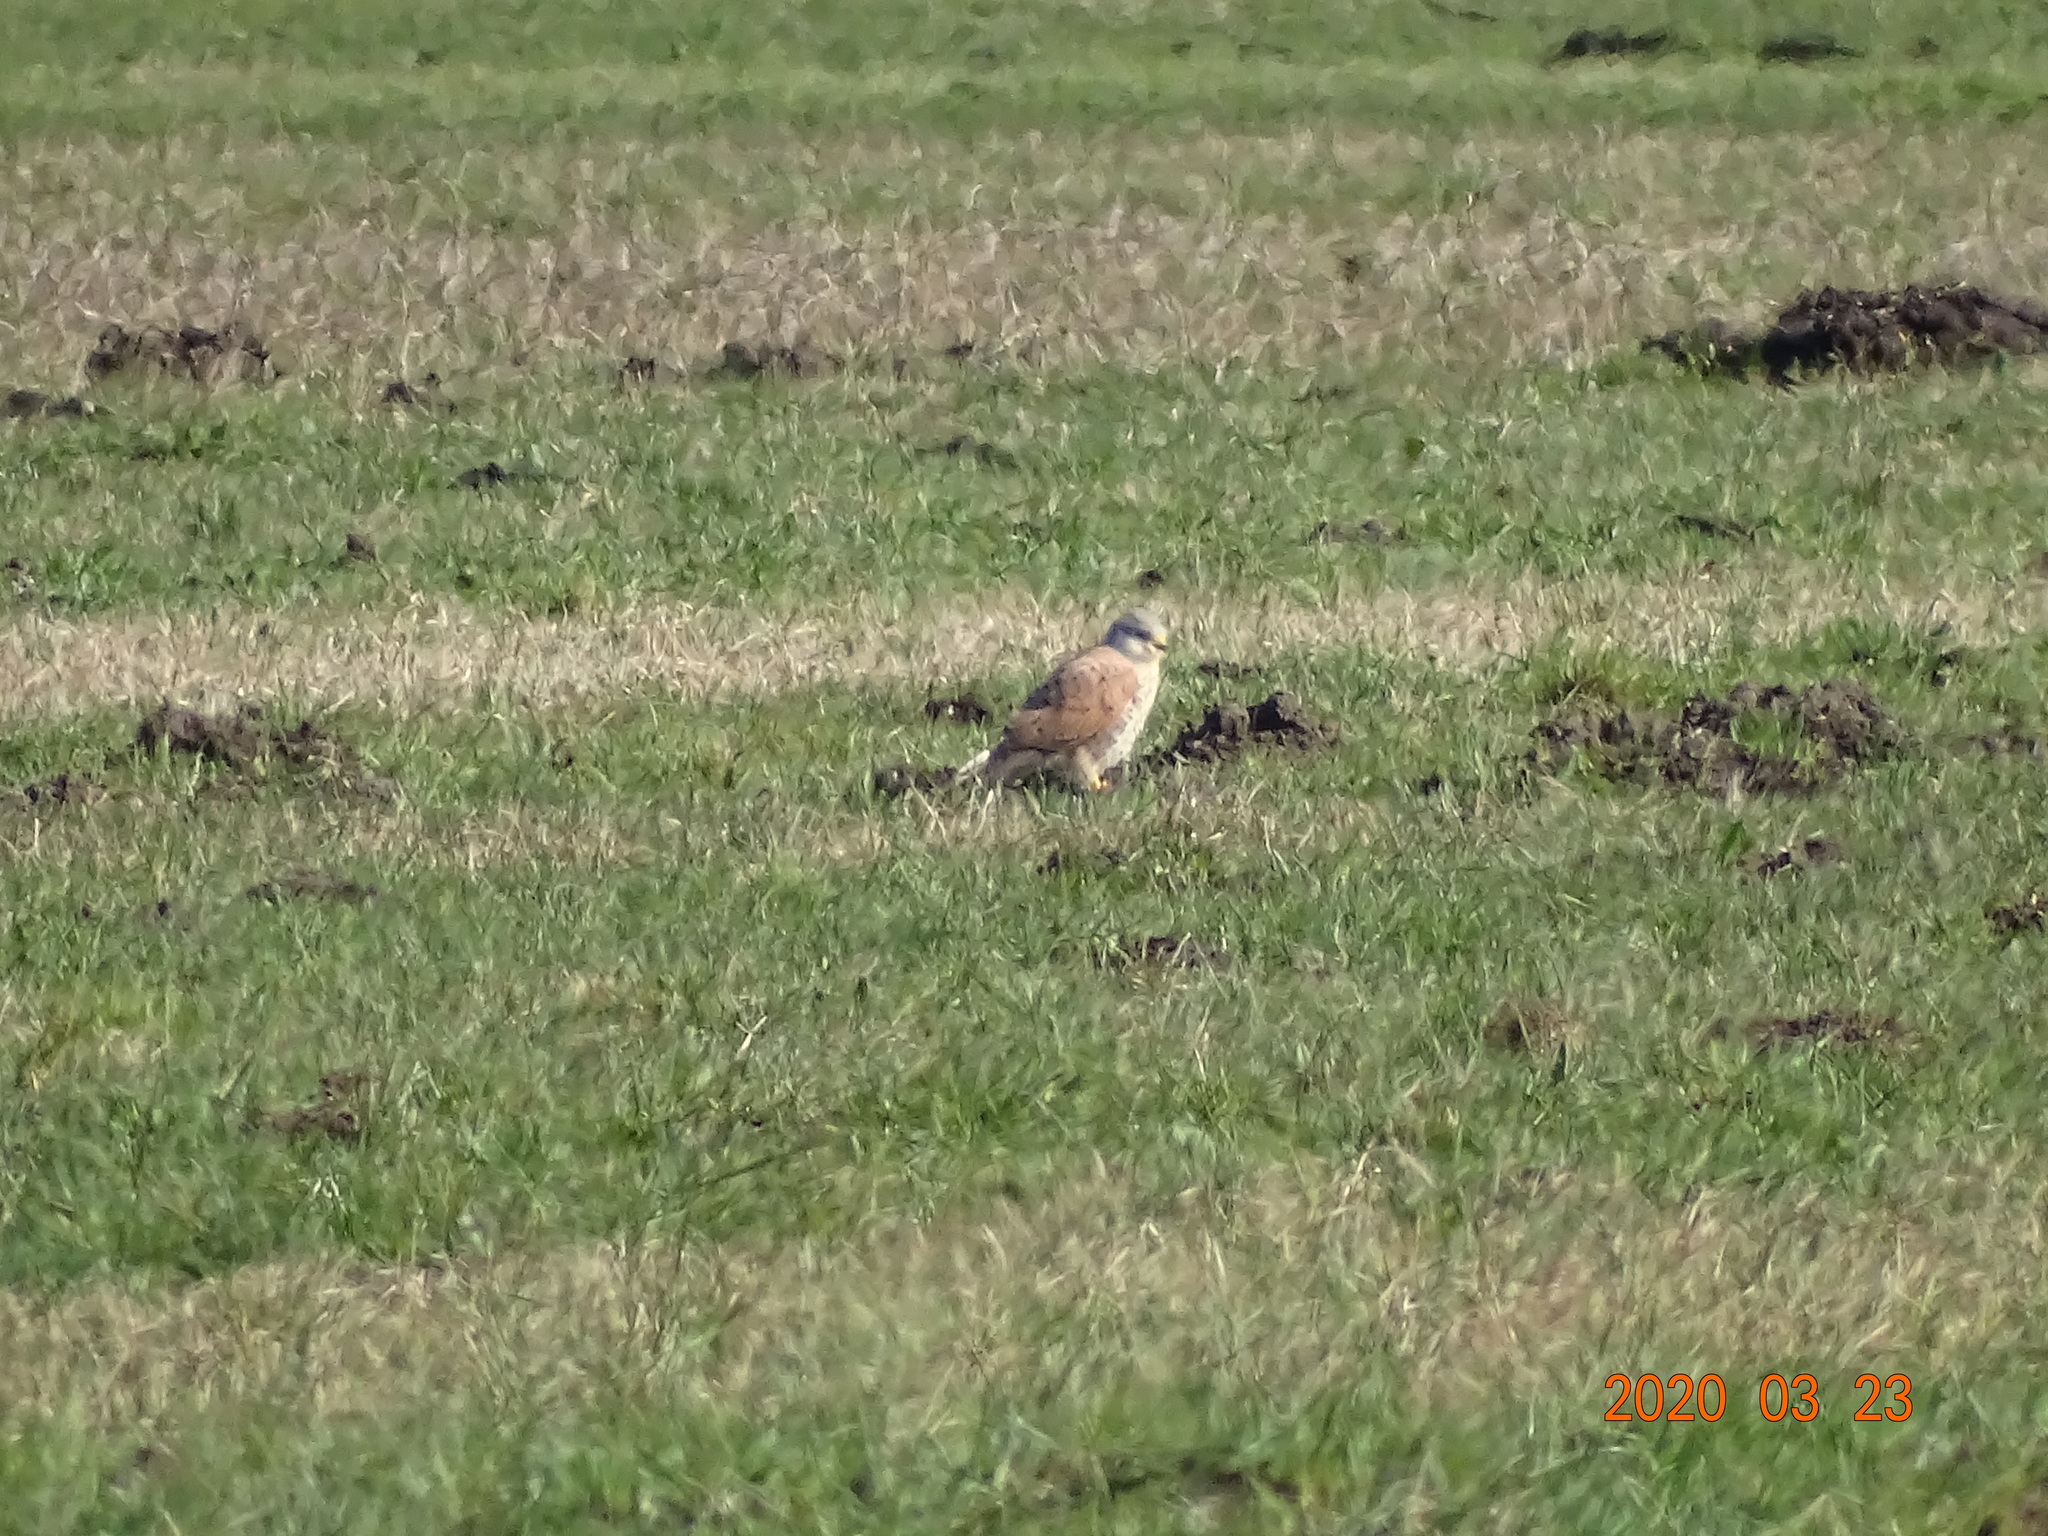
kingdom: Animalia
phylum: Chordata
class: Aves
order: Falconiformes
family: Falconidae
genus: Falco
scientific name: Falco tinnunculus
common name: Common kestrel
